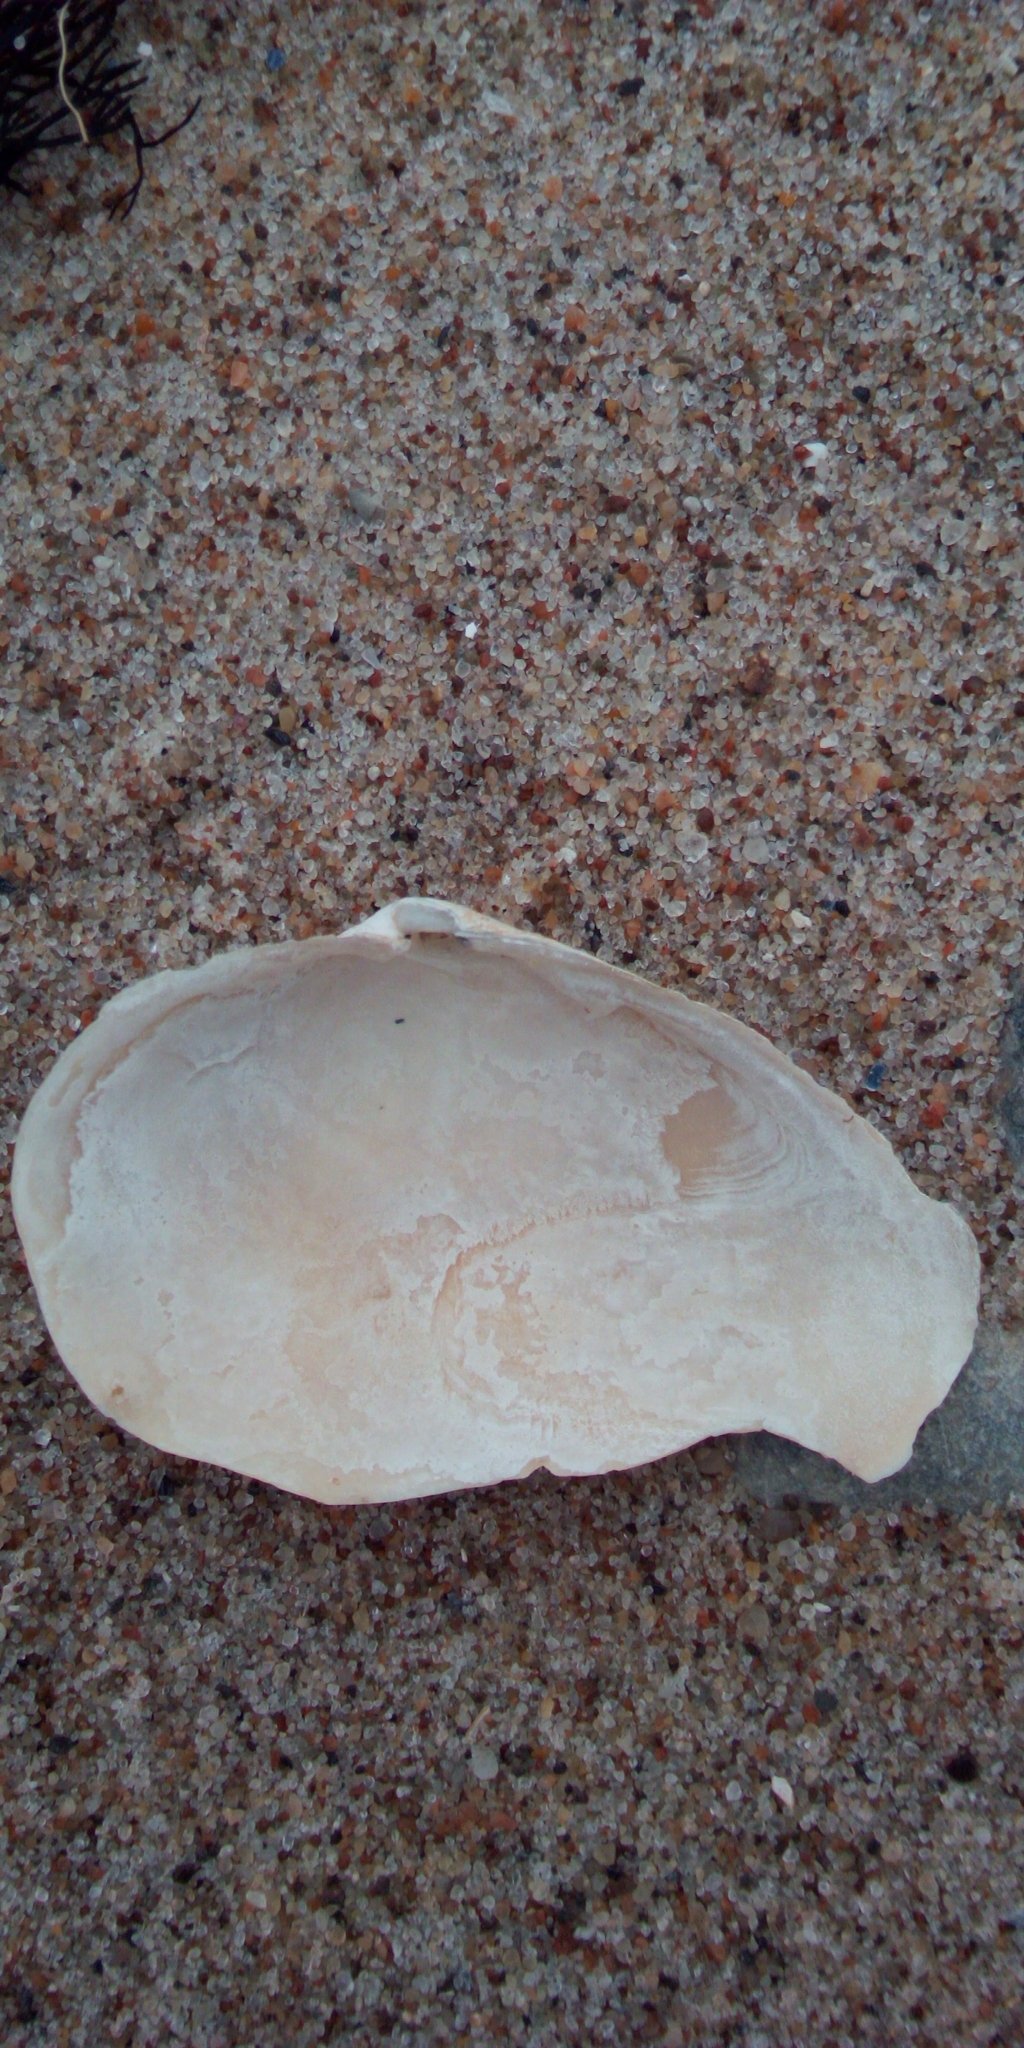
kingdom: Animalia
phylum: Mollusca
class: Bivalvia
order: Myida
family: Myidae
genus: Mya
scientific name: Mya arenaria
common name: Soft-shelled clam
